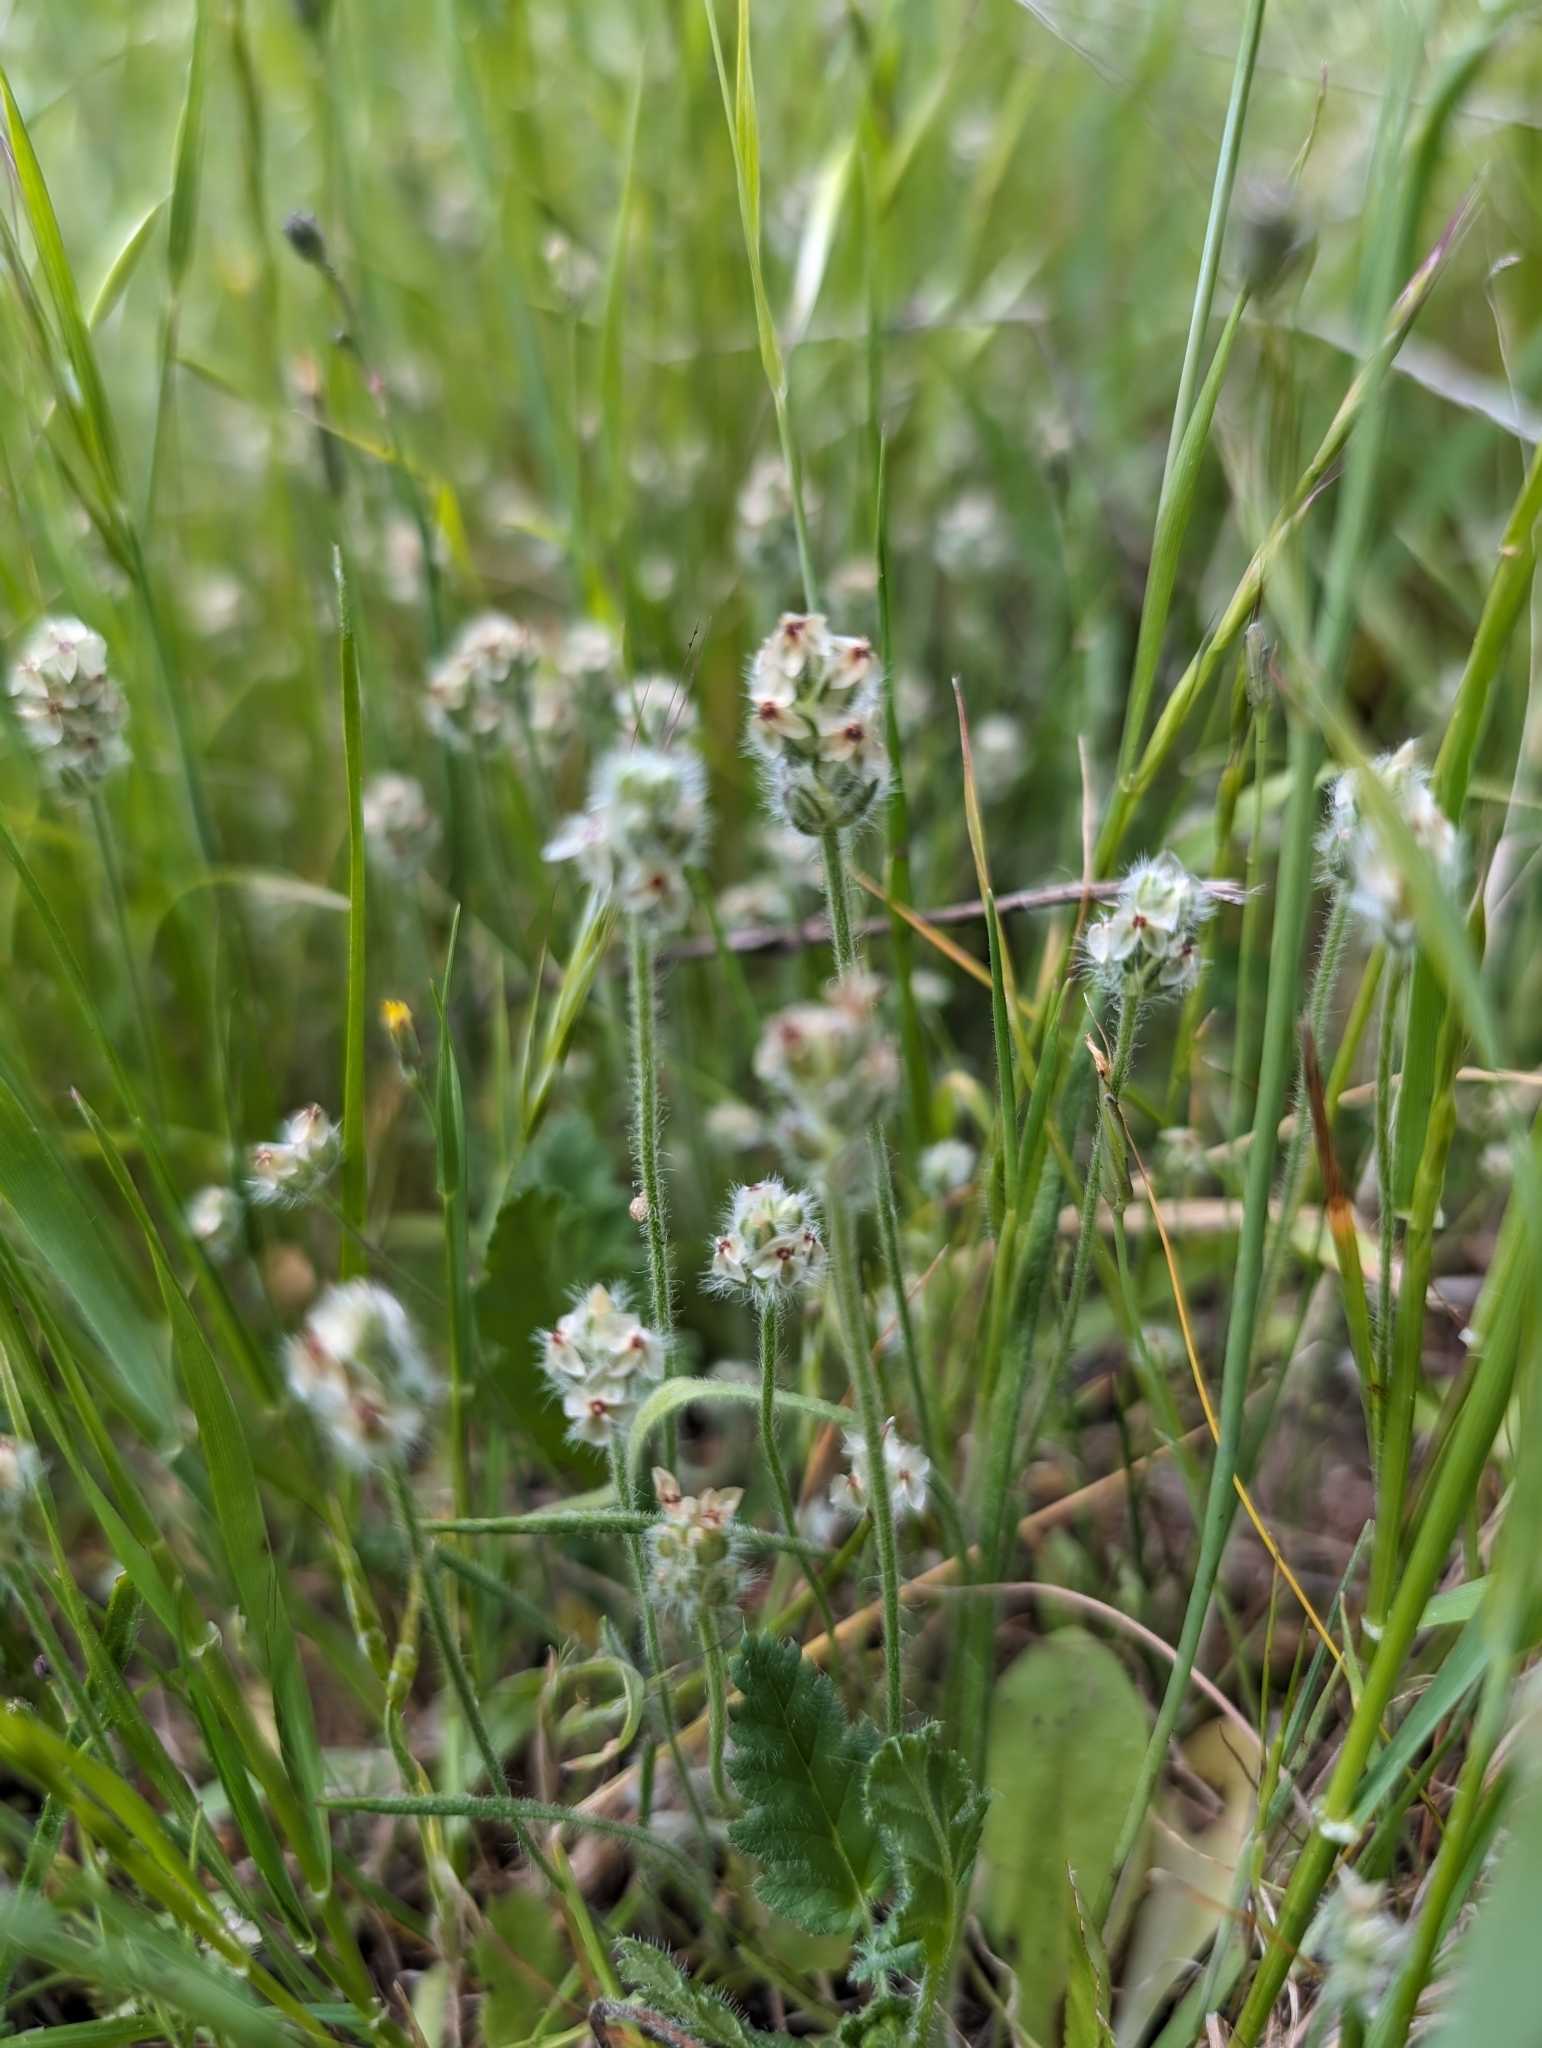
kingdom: Plantae
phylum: Tracheophyta
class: Magnoliopsida
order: Lamiales
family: Plantaginaceae
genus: Plantago
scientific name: Plantago erecta
